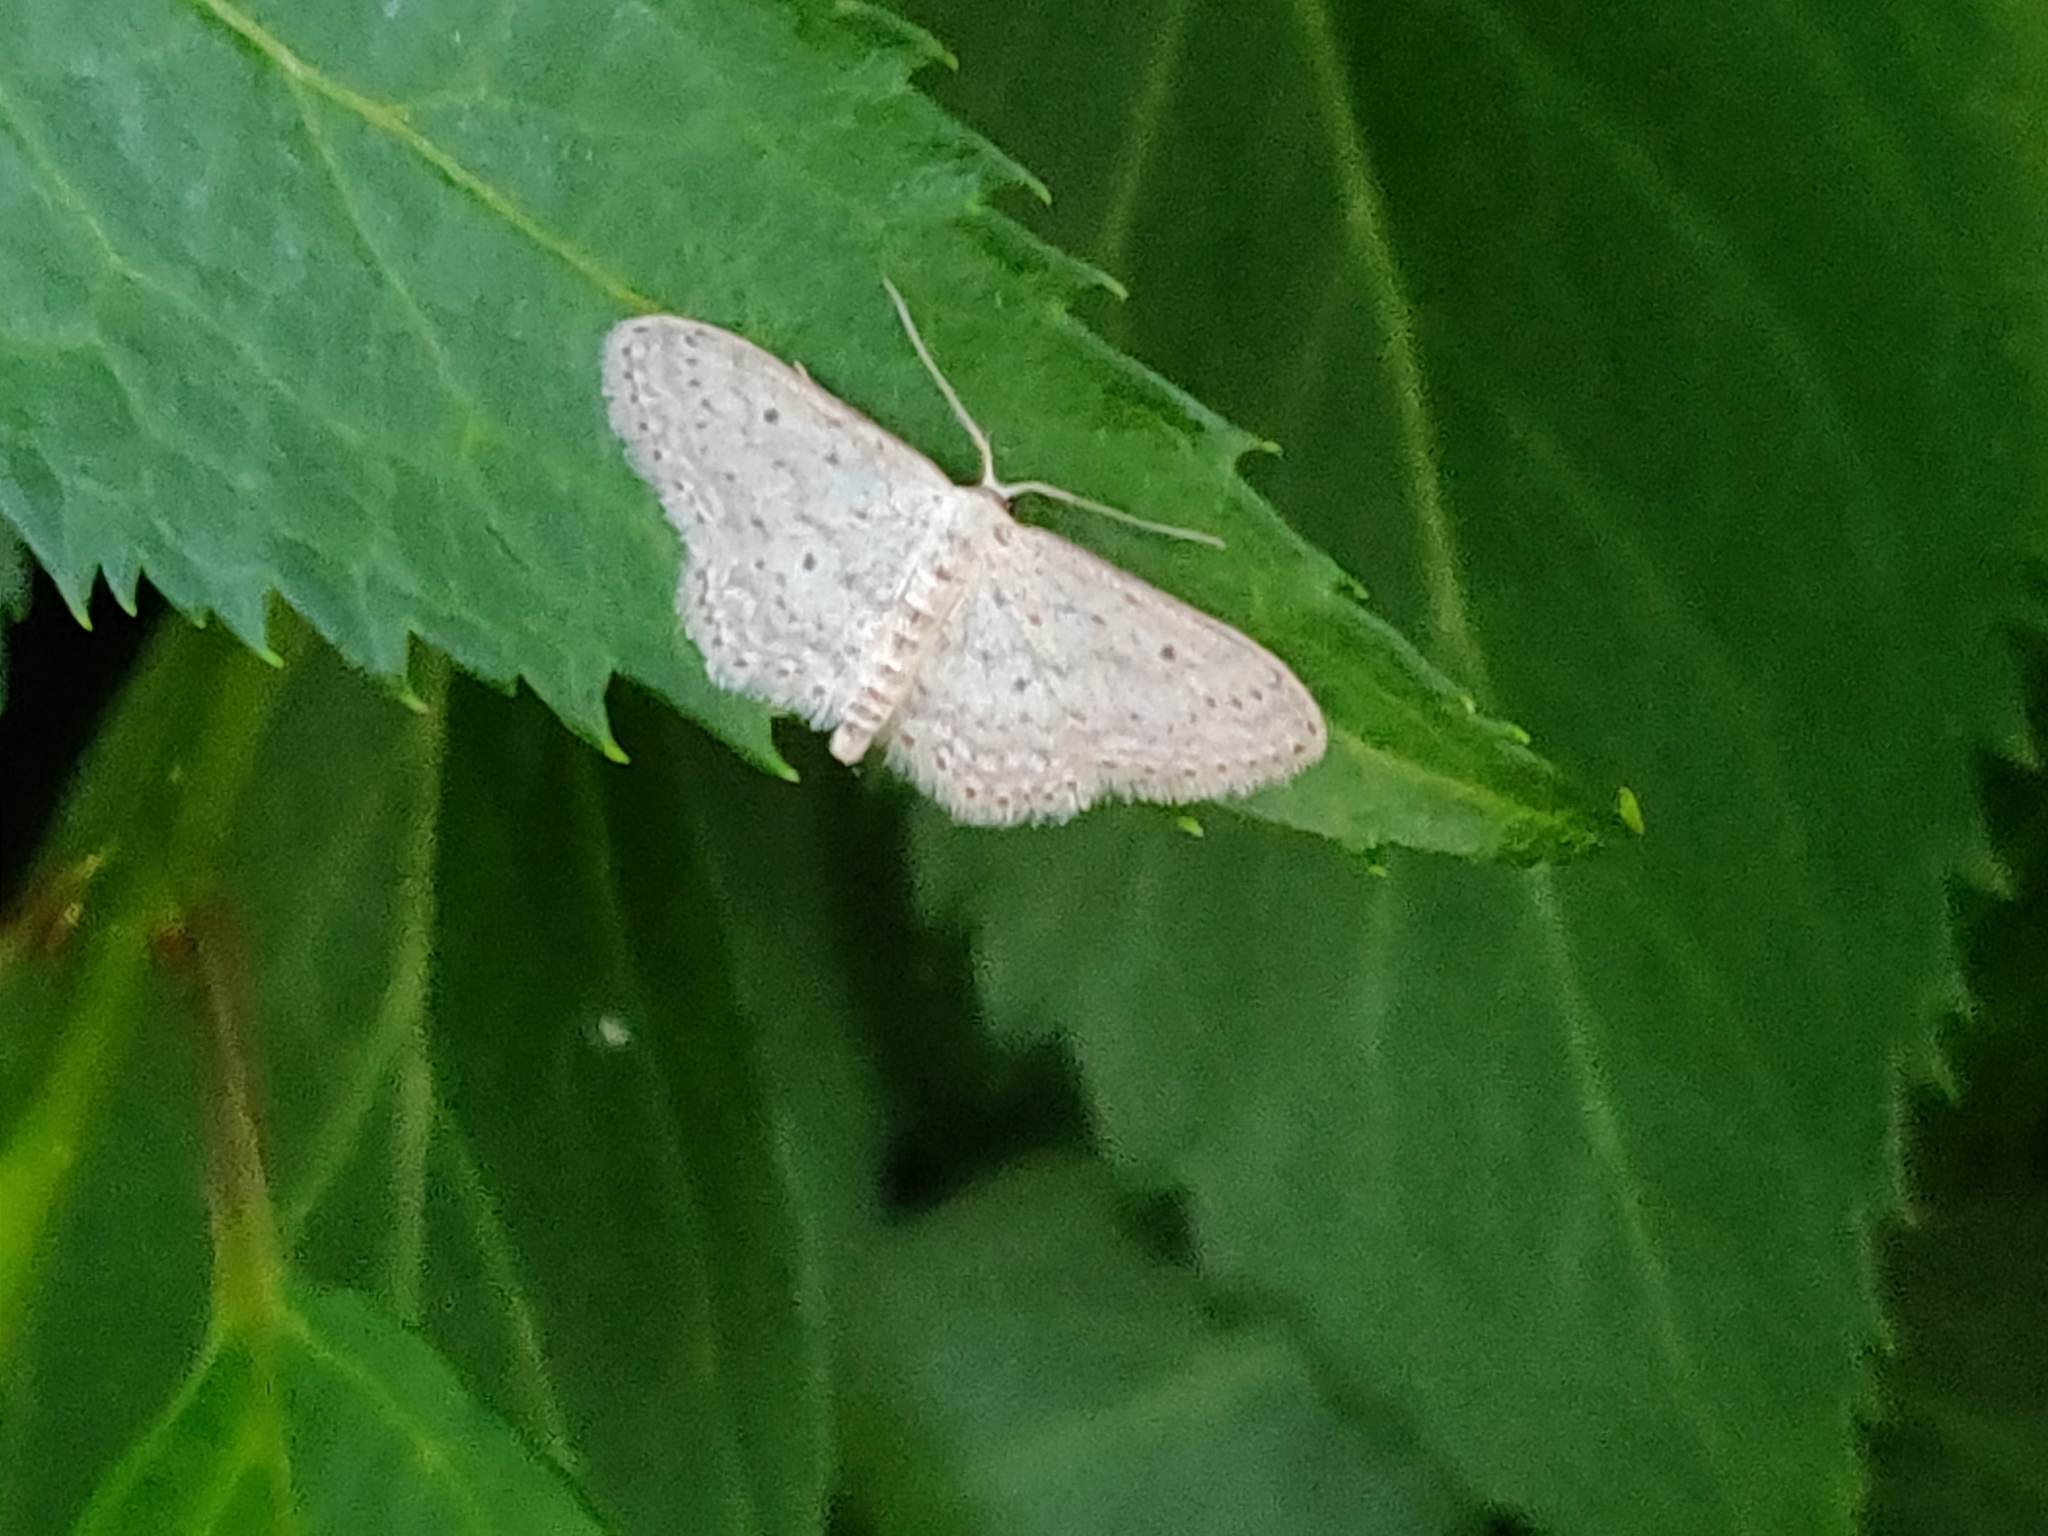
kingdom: Animalia
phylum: Arthropoda
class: Insecta
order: Lepidoptera
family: Geometridae
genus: Idaea
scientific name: Idaea seriata
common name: Small dusty wave
